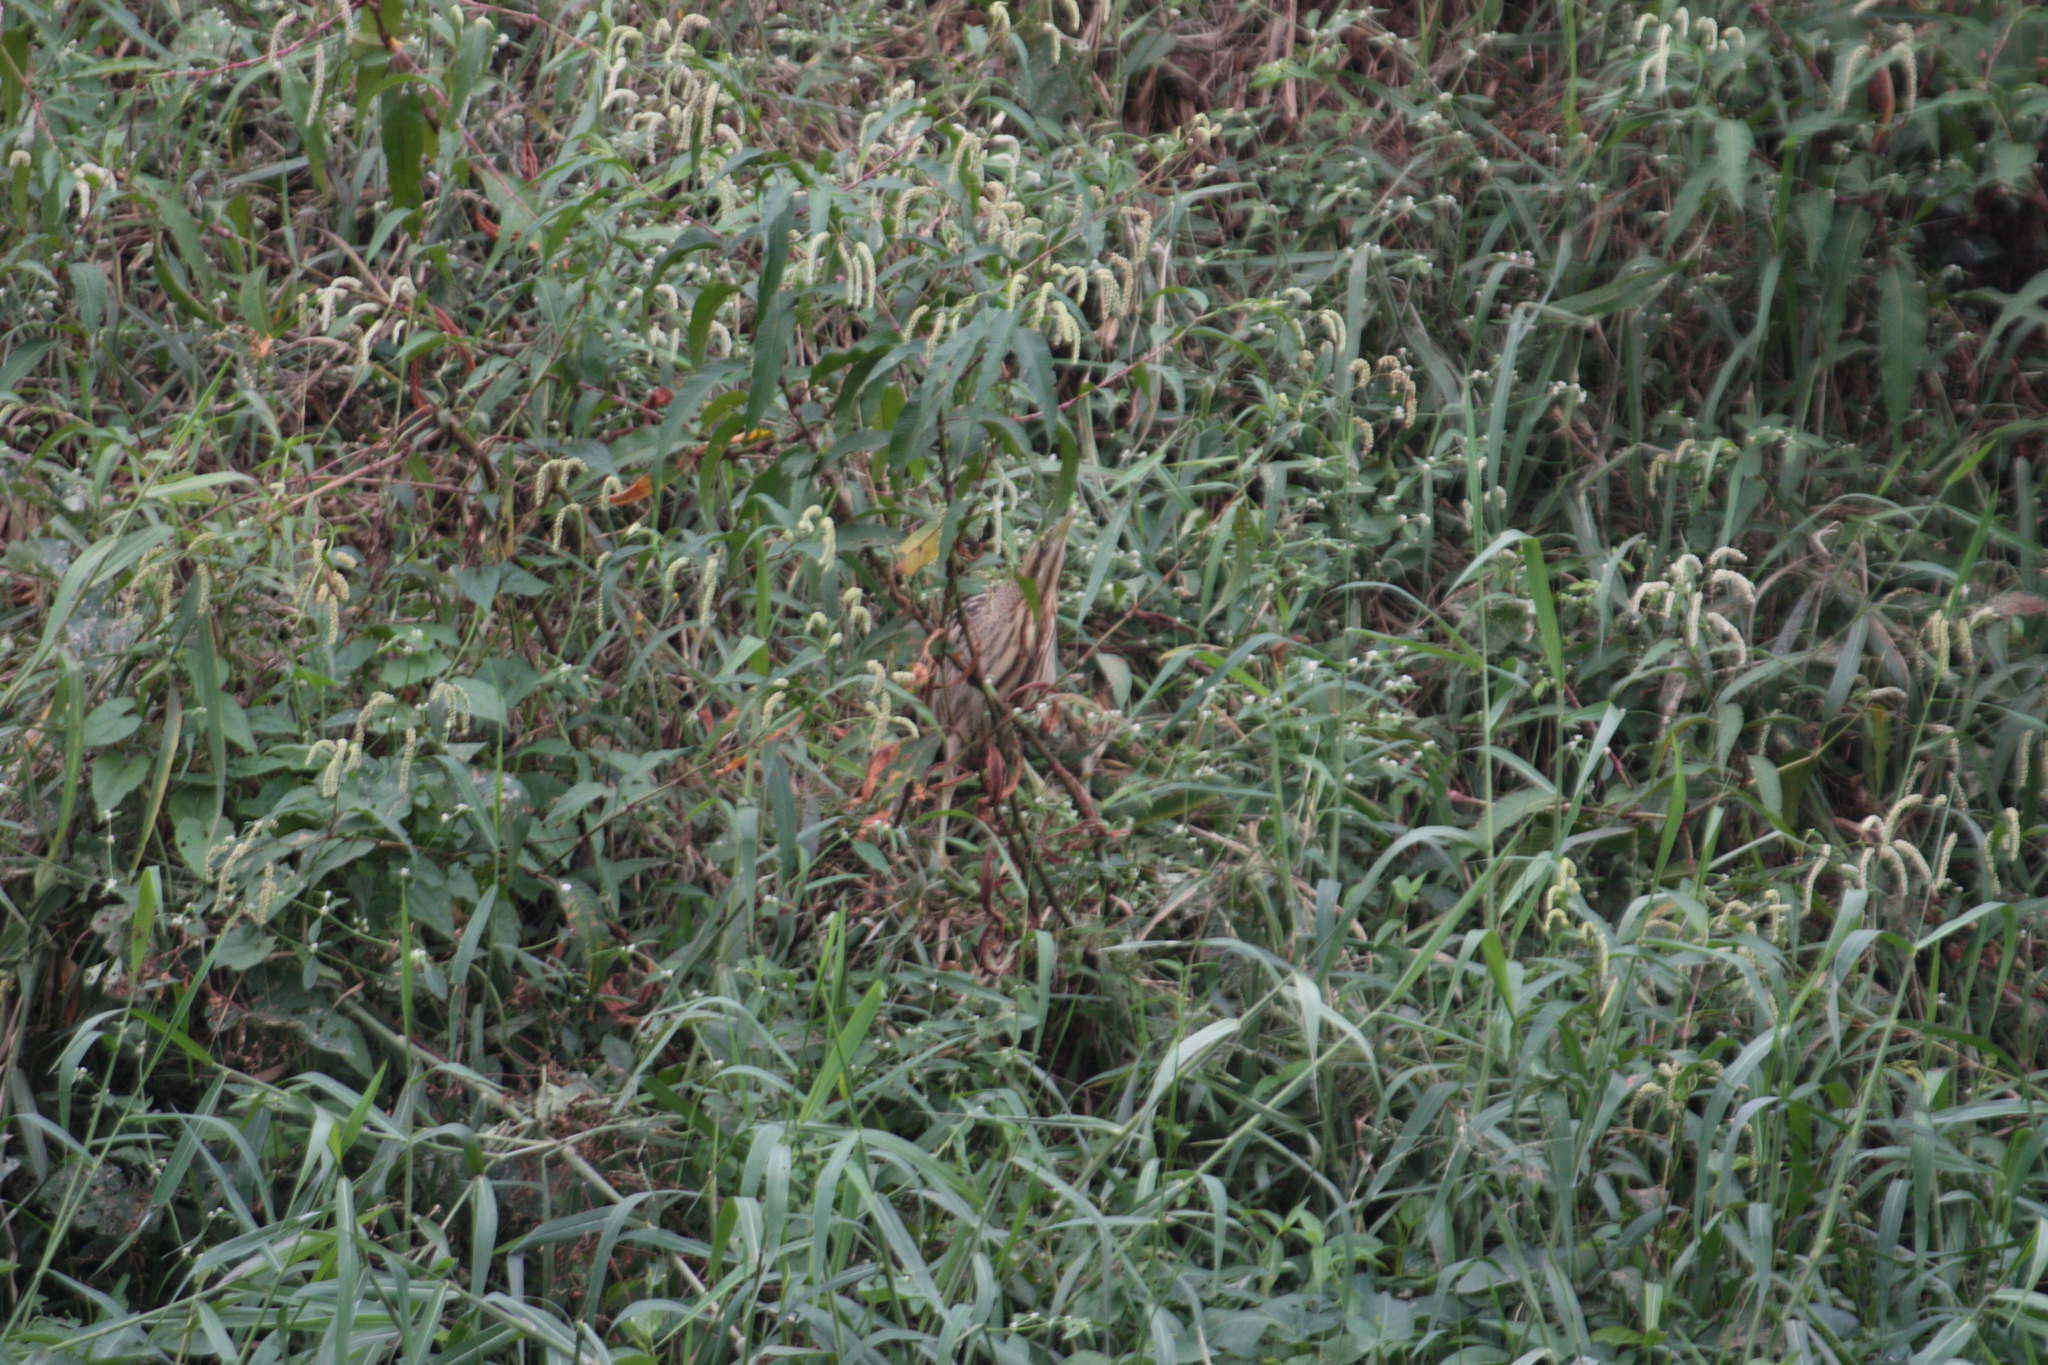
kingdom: Animalia
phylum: Chordata
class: Aves
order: Pelecaniformes
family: Ardeidae
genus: Botaurus
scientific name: Botaurus stellaris
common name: Eurasian bittern
